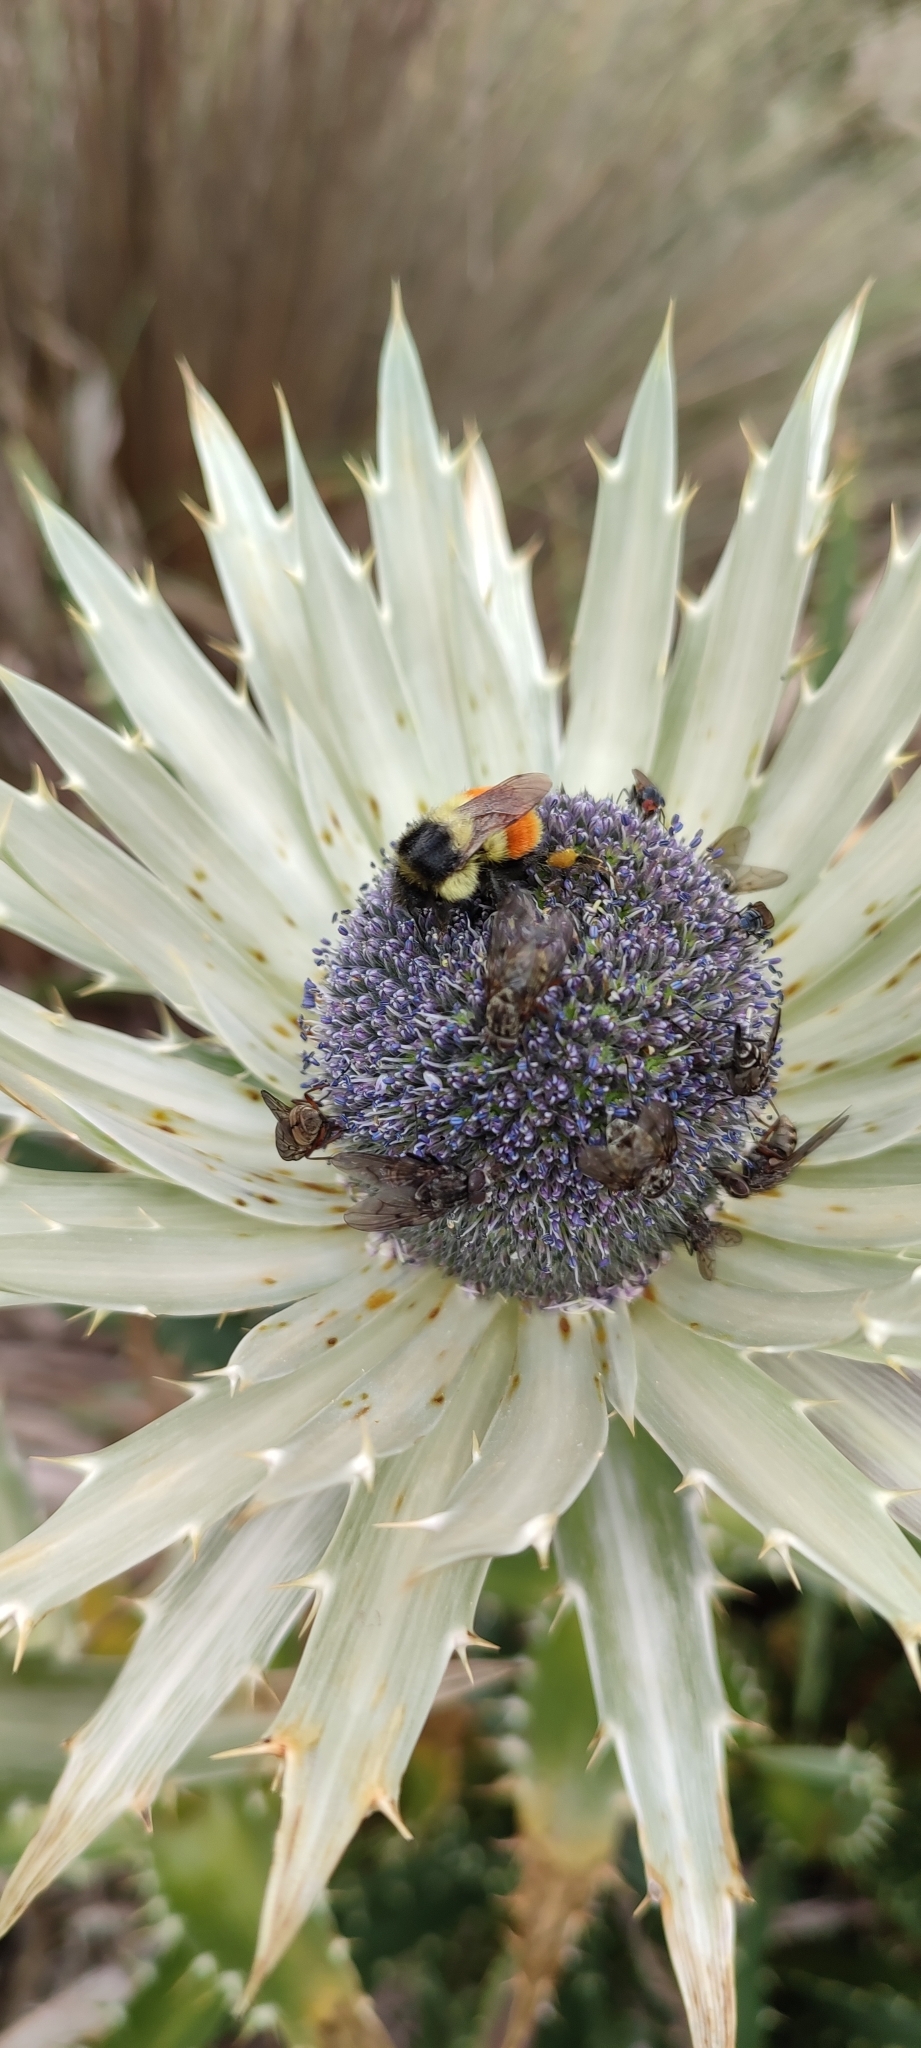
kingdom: Animalia
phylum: Arthropoda
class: Insecta
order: Hymenoptera
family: Apidae
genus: Bombus
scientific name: Bombus huntii
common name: Hunt bumble bee
